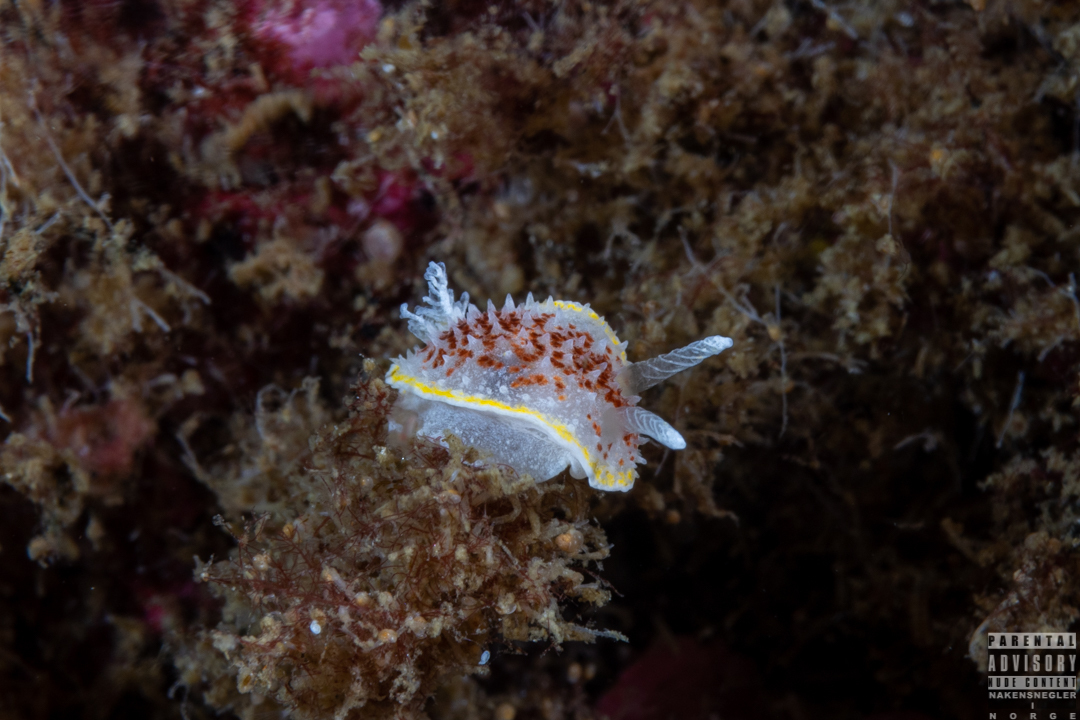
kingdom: Animalia
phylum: Mollusca
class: Gastropoda
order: Nudibranchia
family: Calycidorididae
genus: Diaphorodoris
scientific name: Diaphorodoris luteocincta
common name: Fried egg nudibranch
